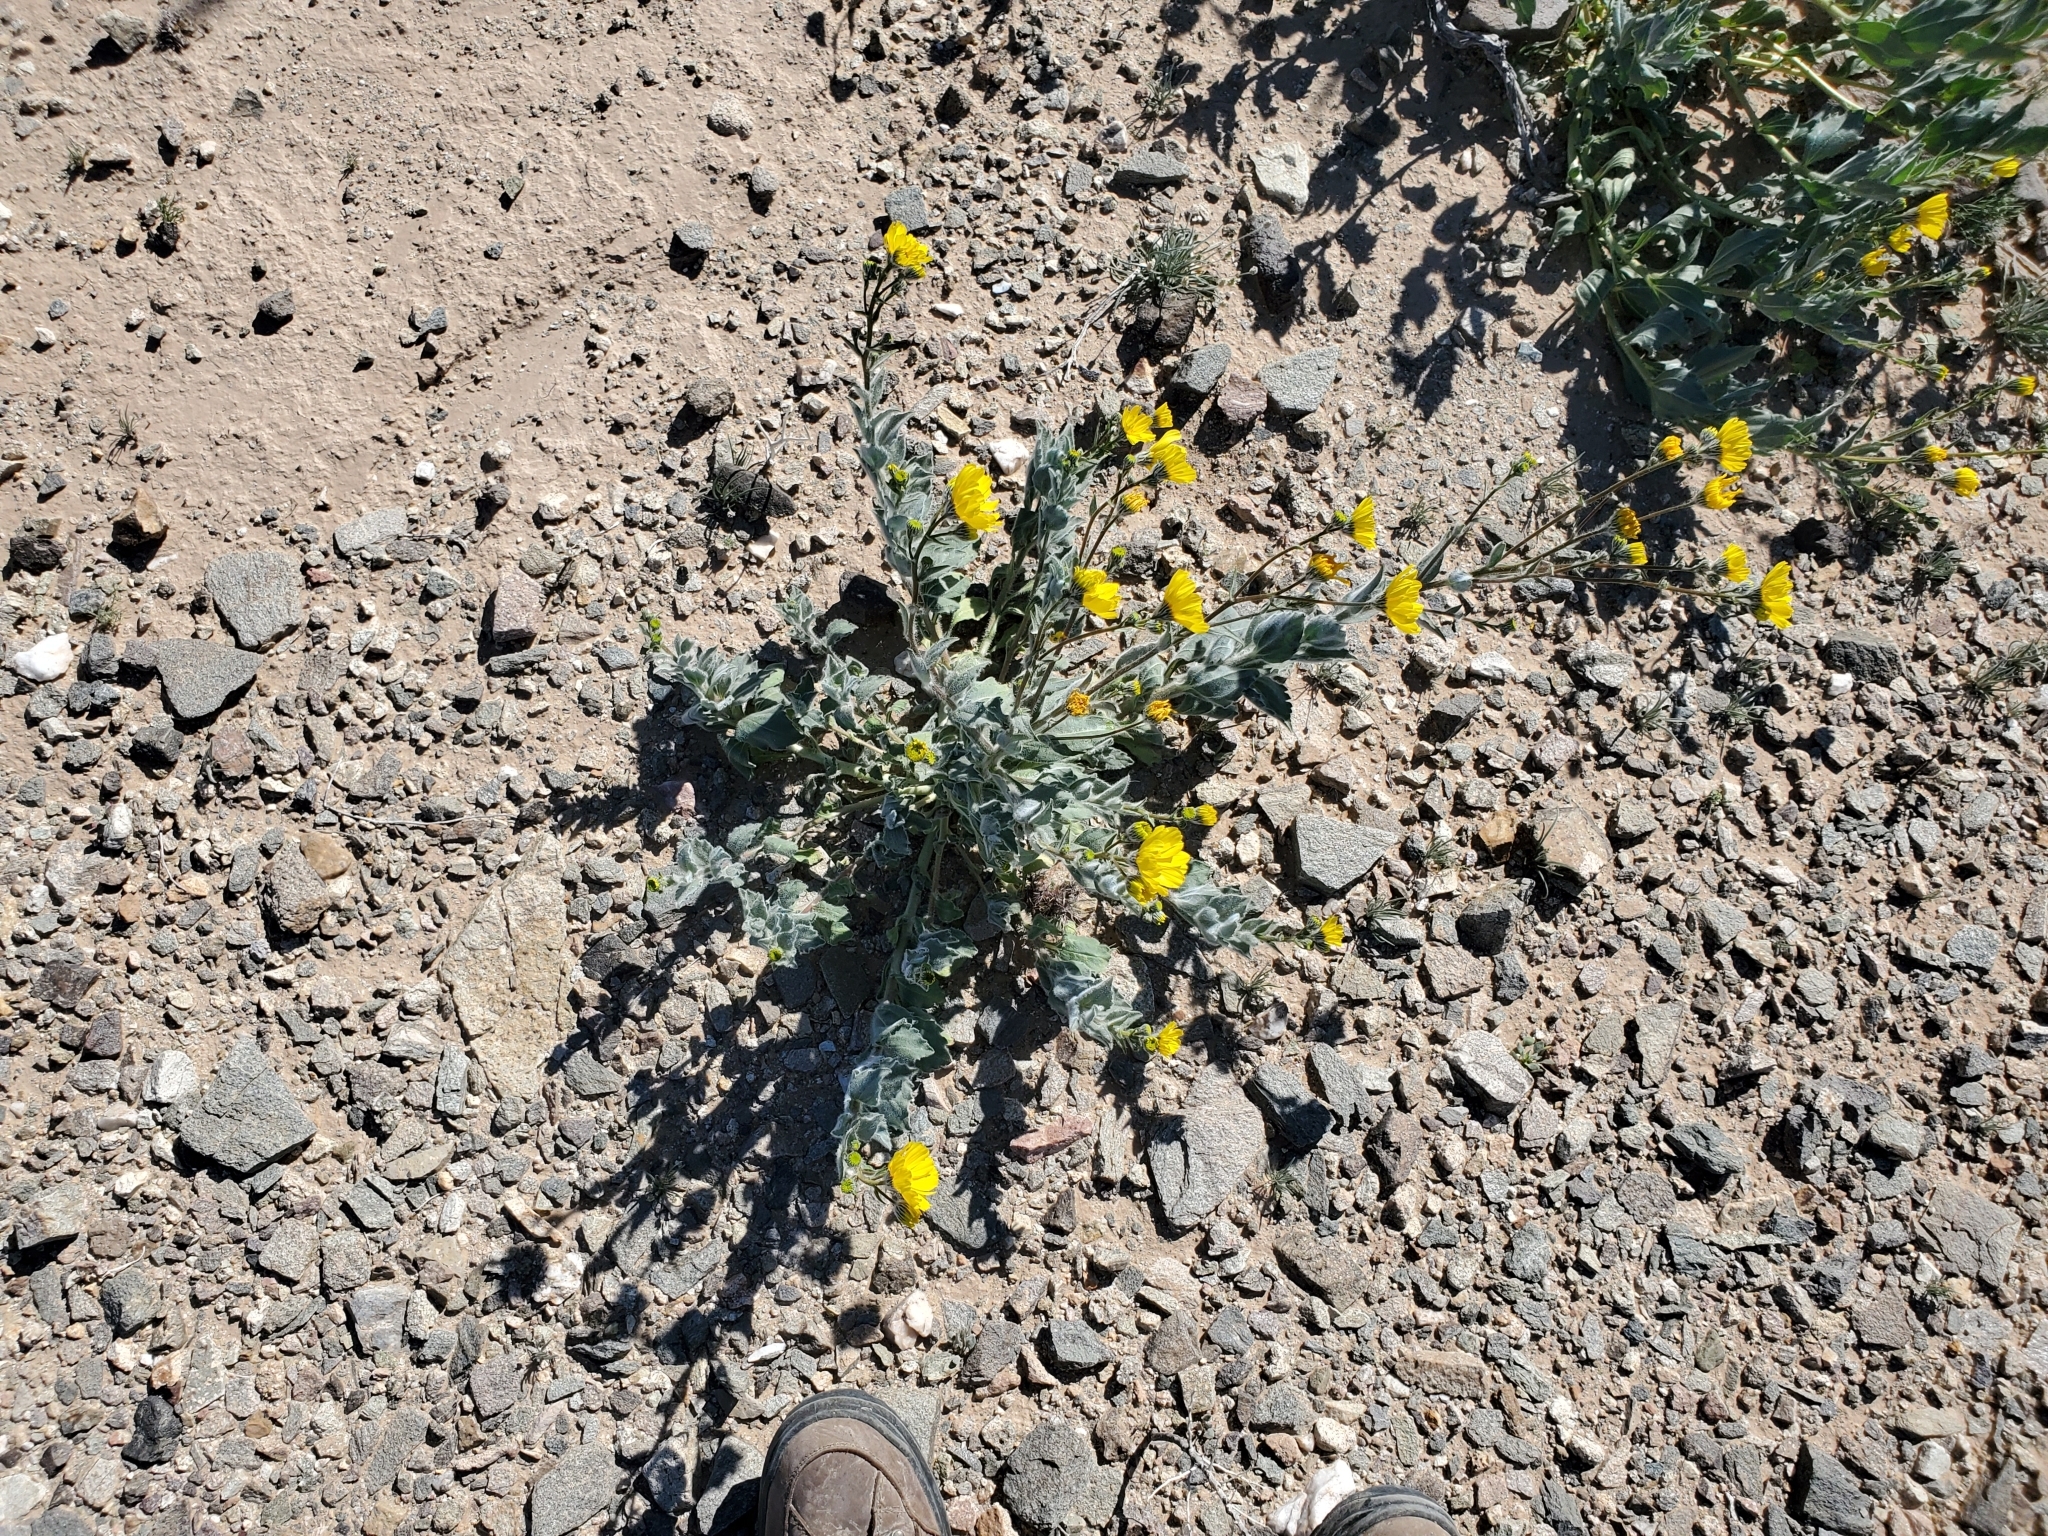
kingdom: Plantae
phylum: Tracheophyta
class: Magnoliopsida
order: Asterales
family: Asteraceae
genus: Geraea
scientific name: Geraea canescens
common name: Desert-gold
